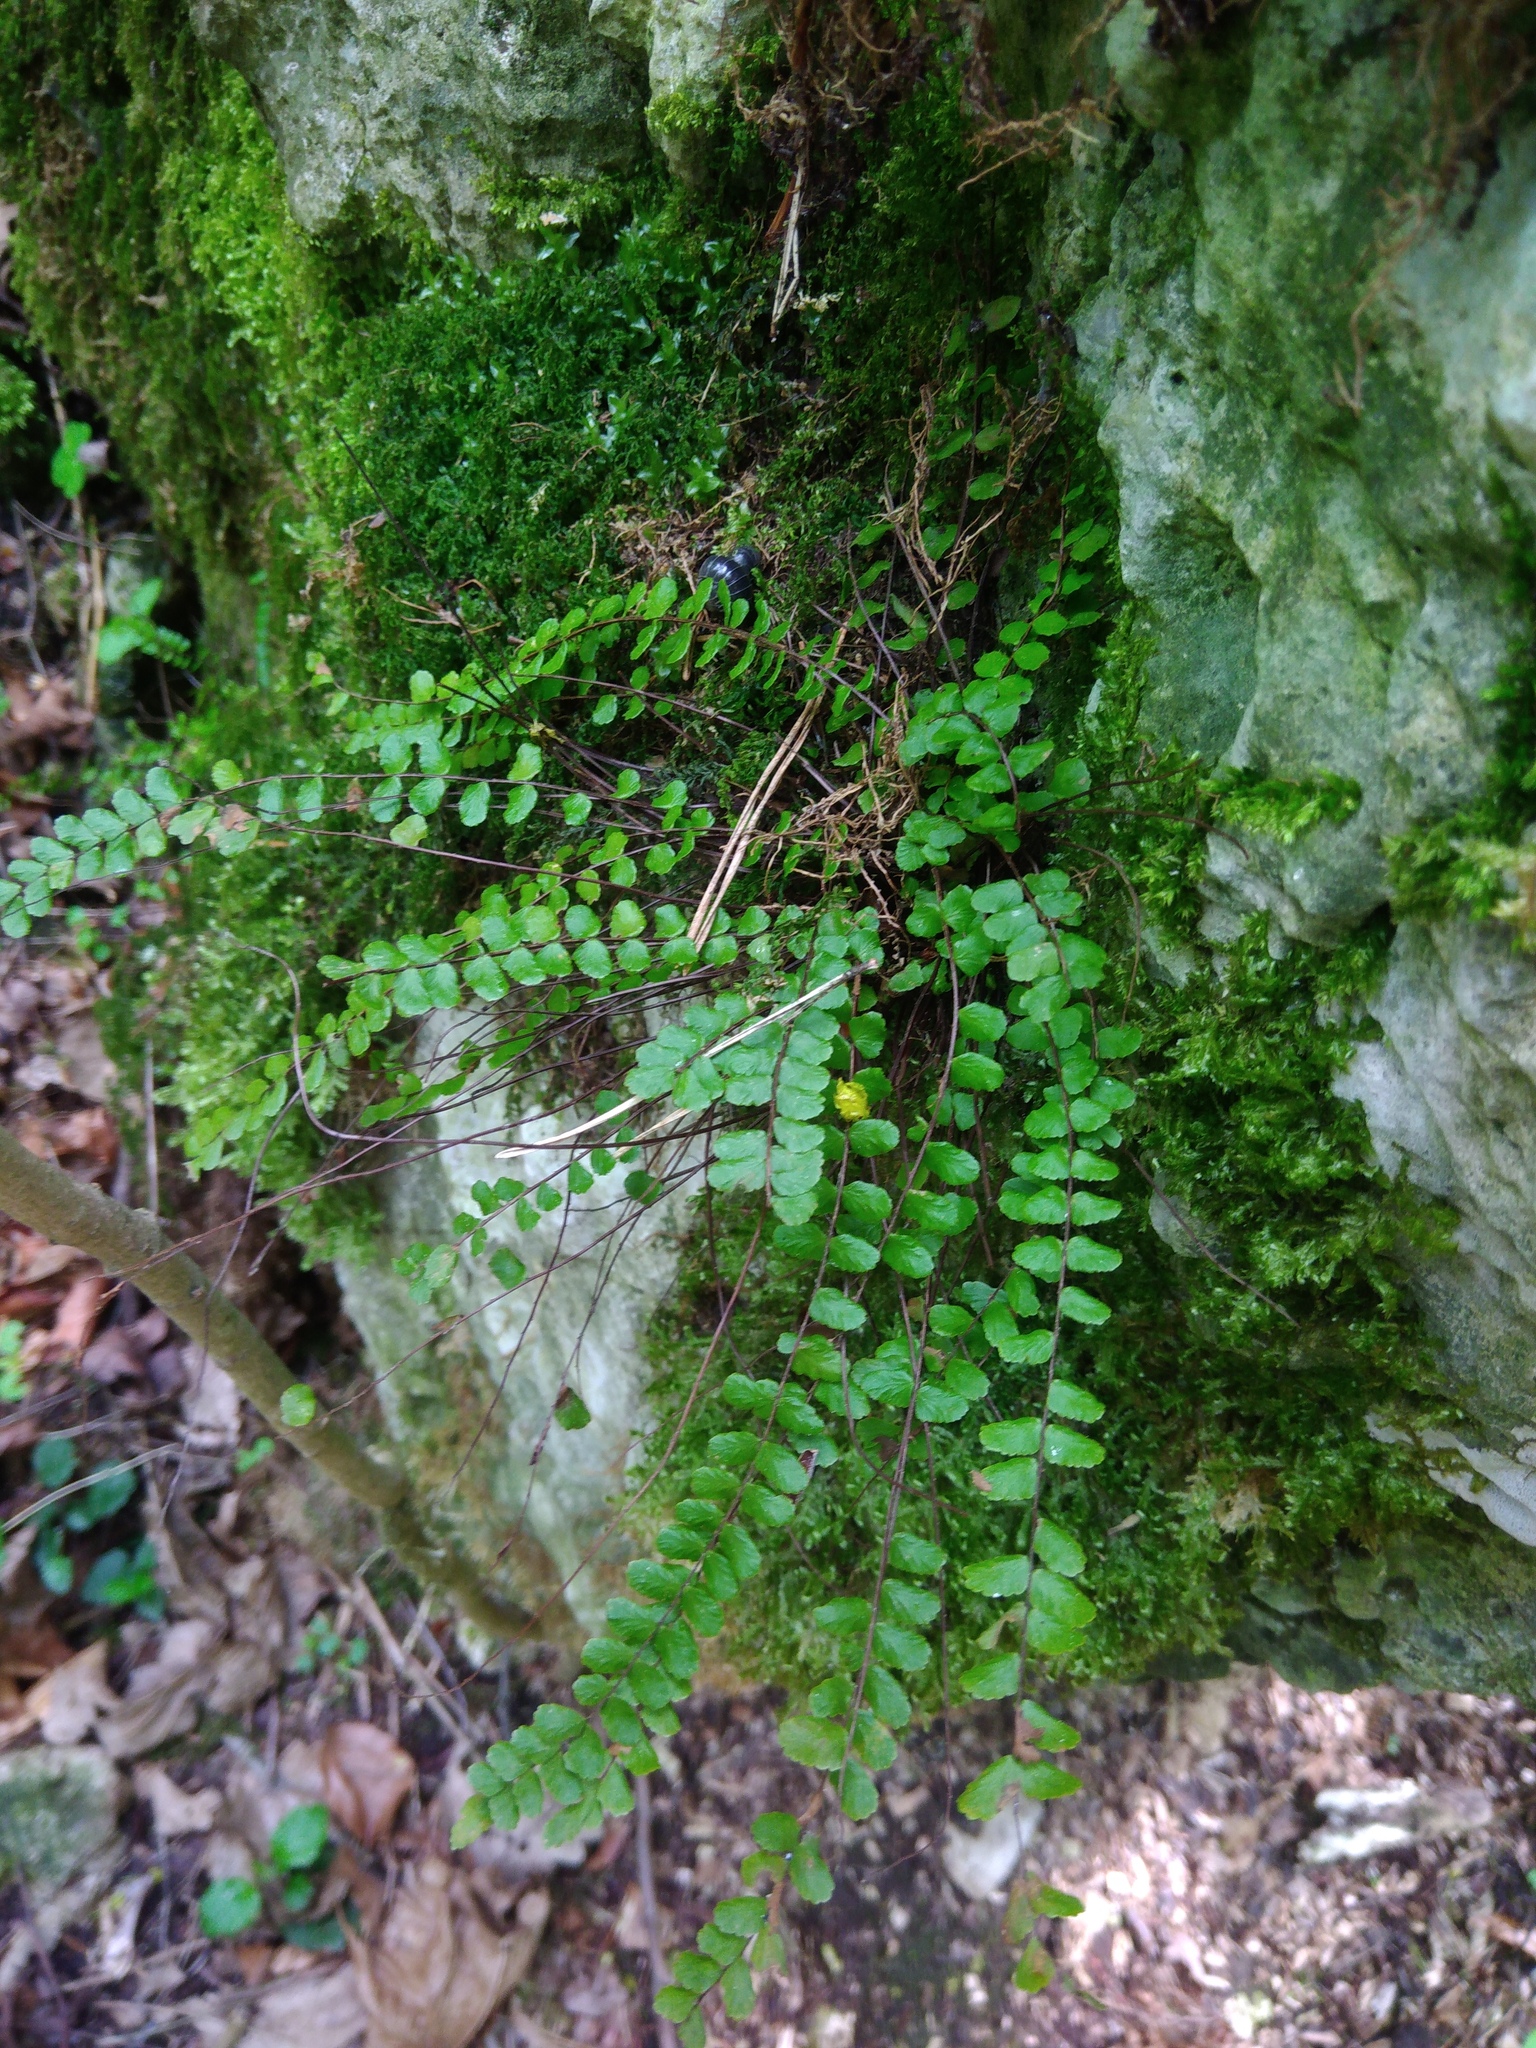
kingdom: Plantae
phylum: Tracheophyta
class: Polypodiopsida
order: Polypodiales
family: Aspleniaceae
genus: Asplenium
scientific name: Asplenium trichomanes
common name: Maidenhair spleenwort
